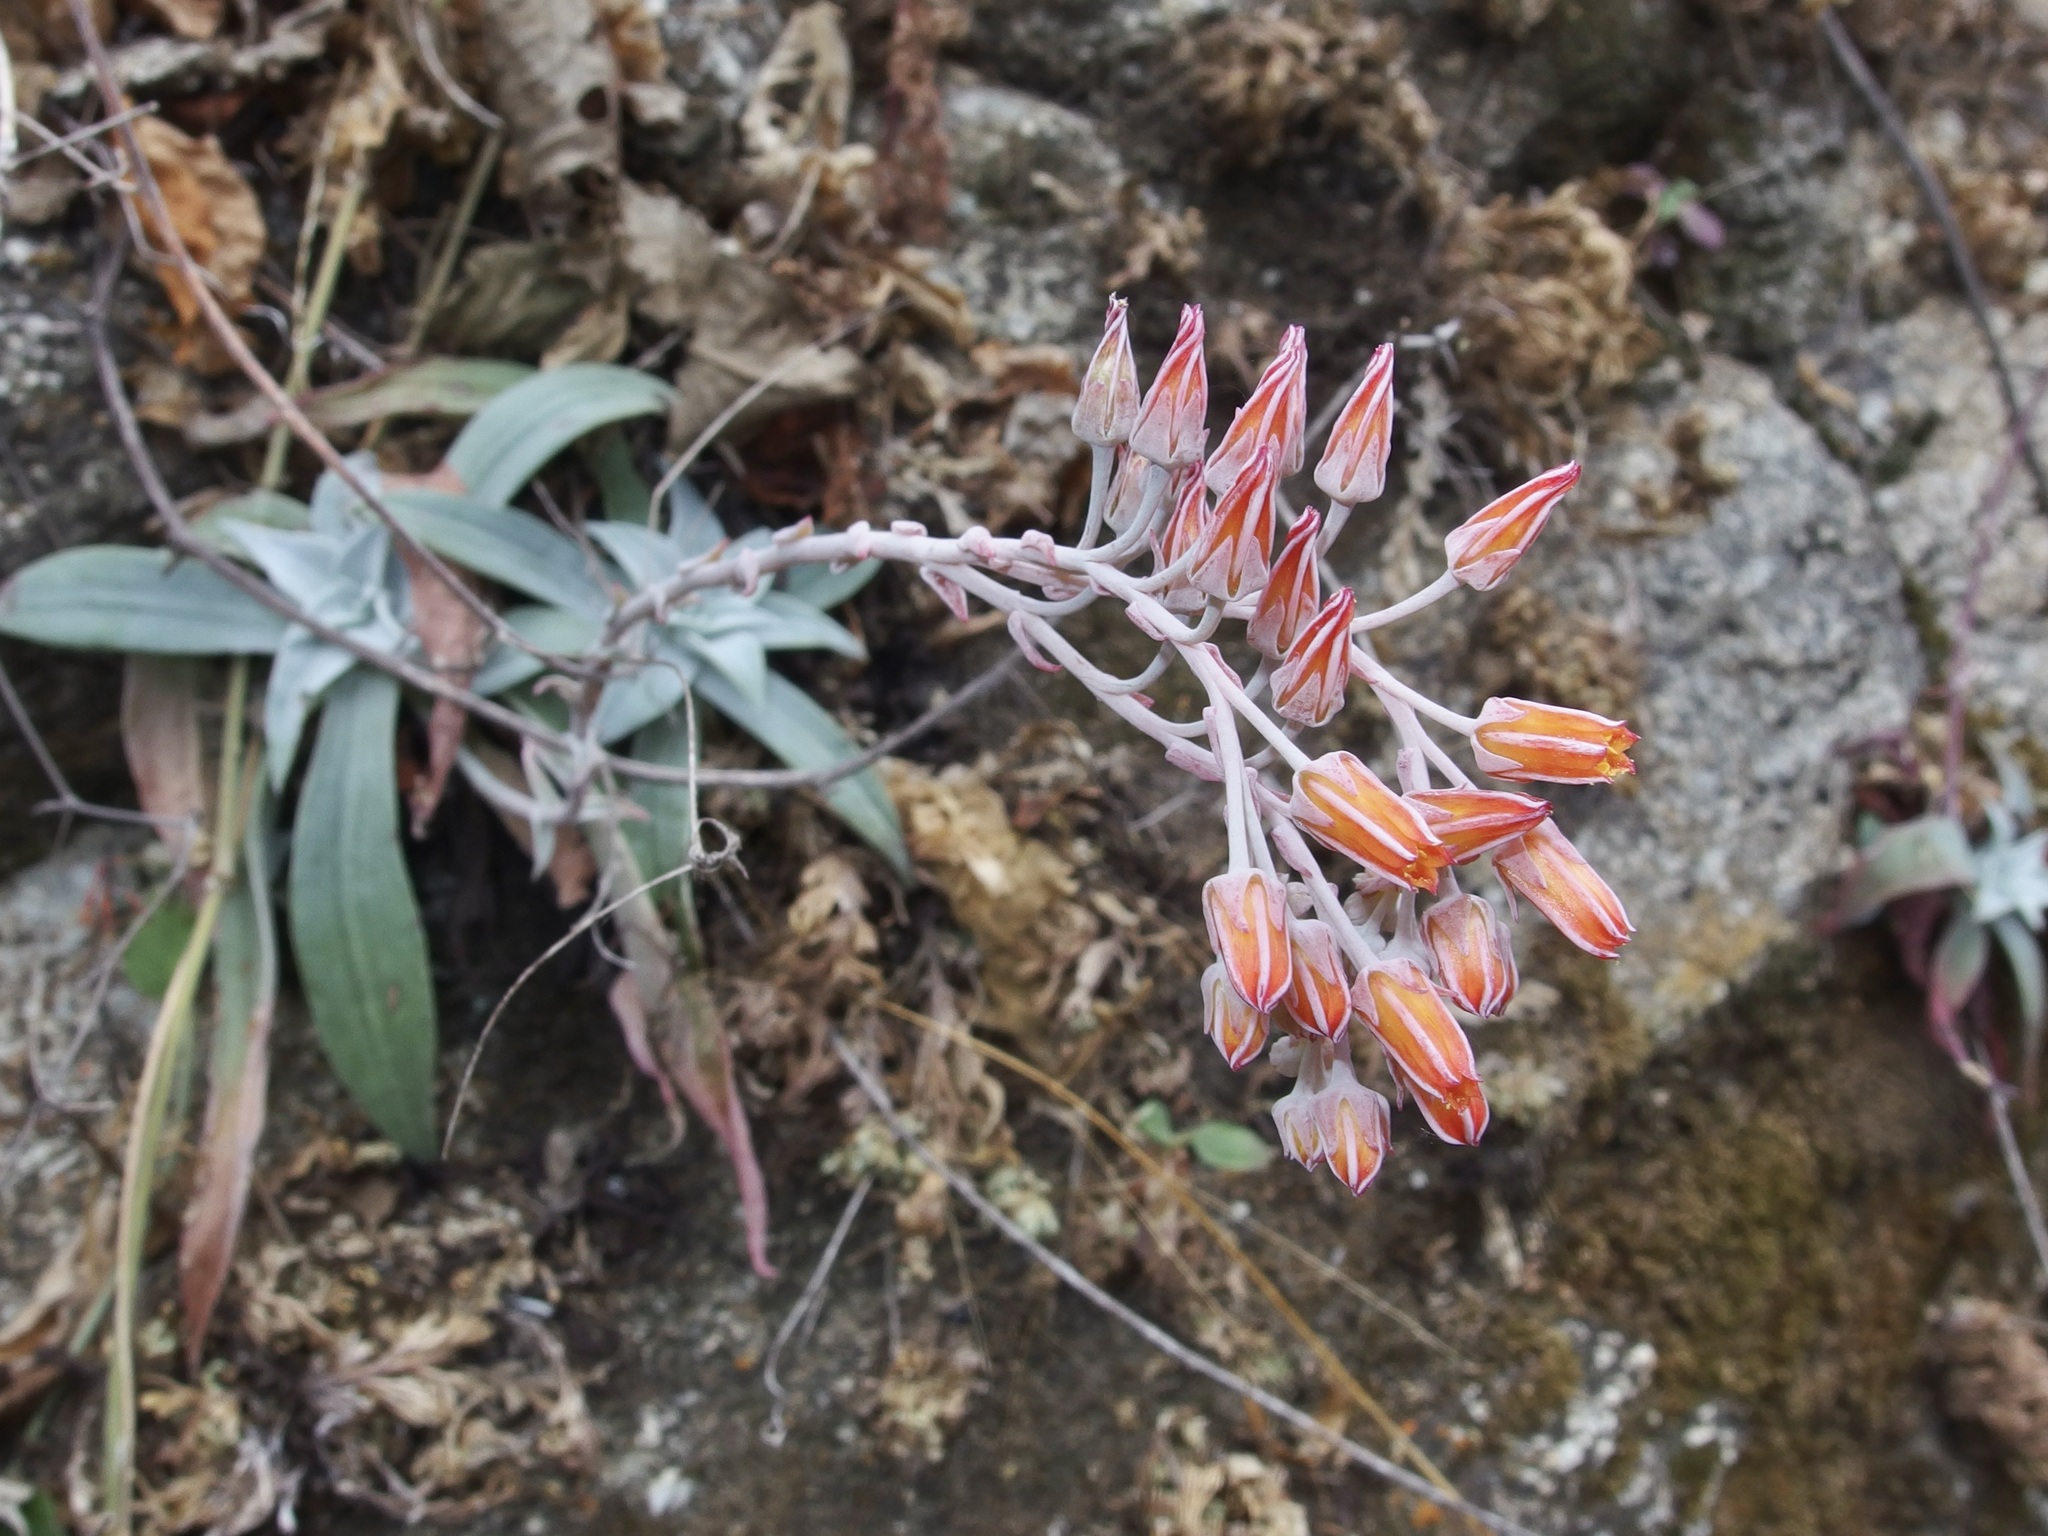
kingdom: Plantae
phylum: Tracheophyta
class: Magnoliopsida
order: Saxifragales
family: Crassulaceae
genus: Dudleya
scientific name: Dudleya nubigena
